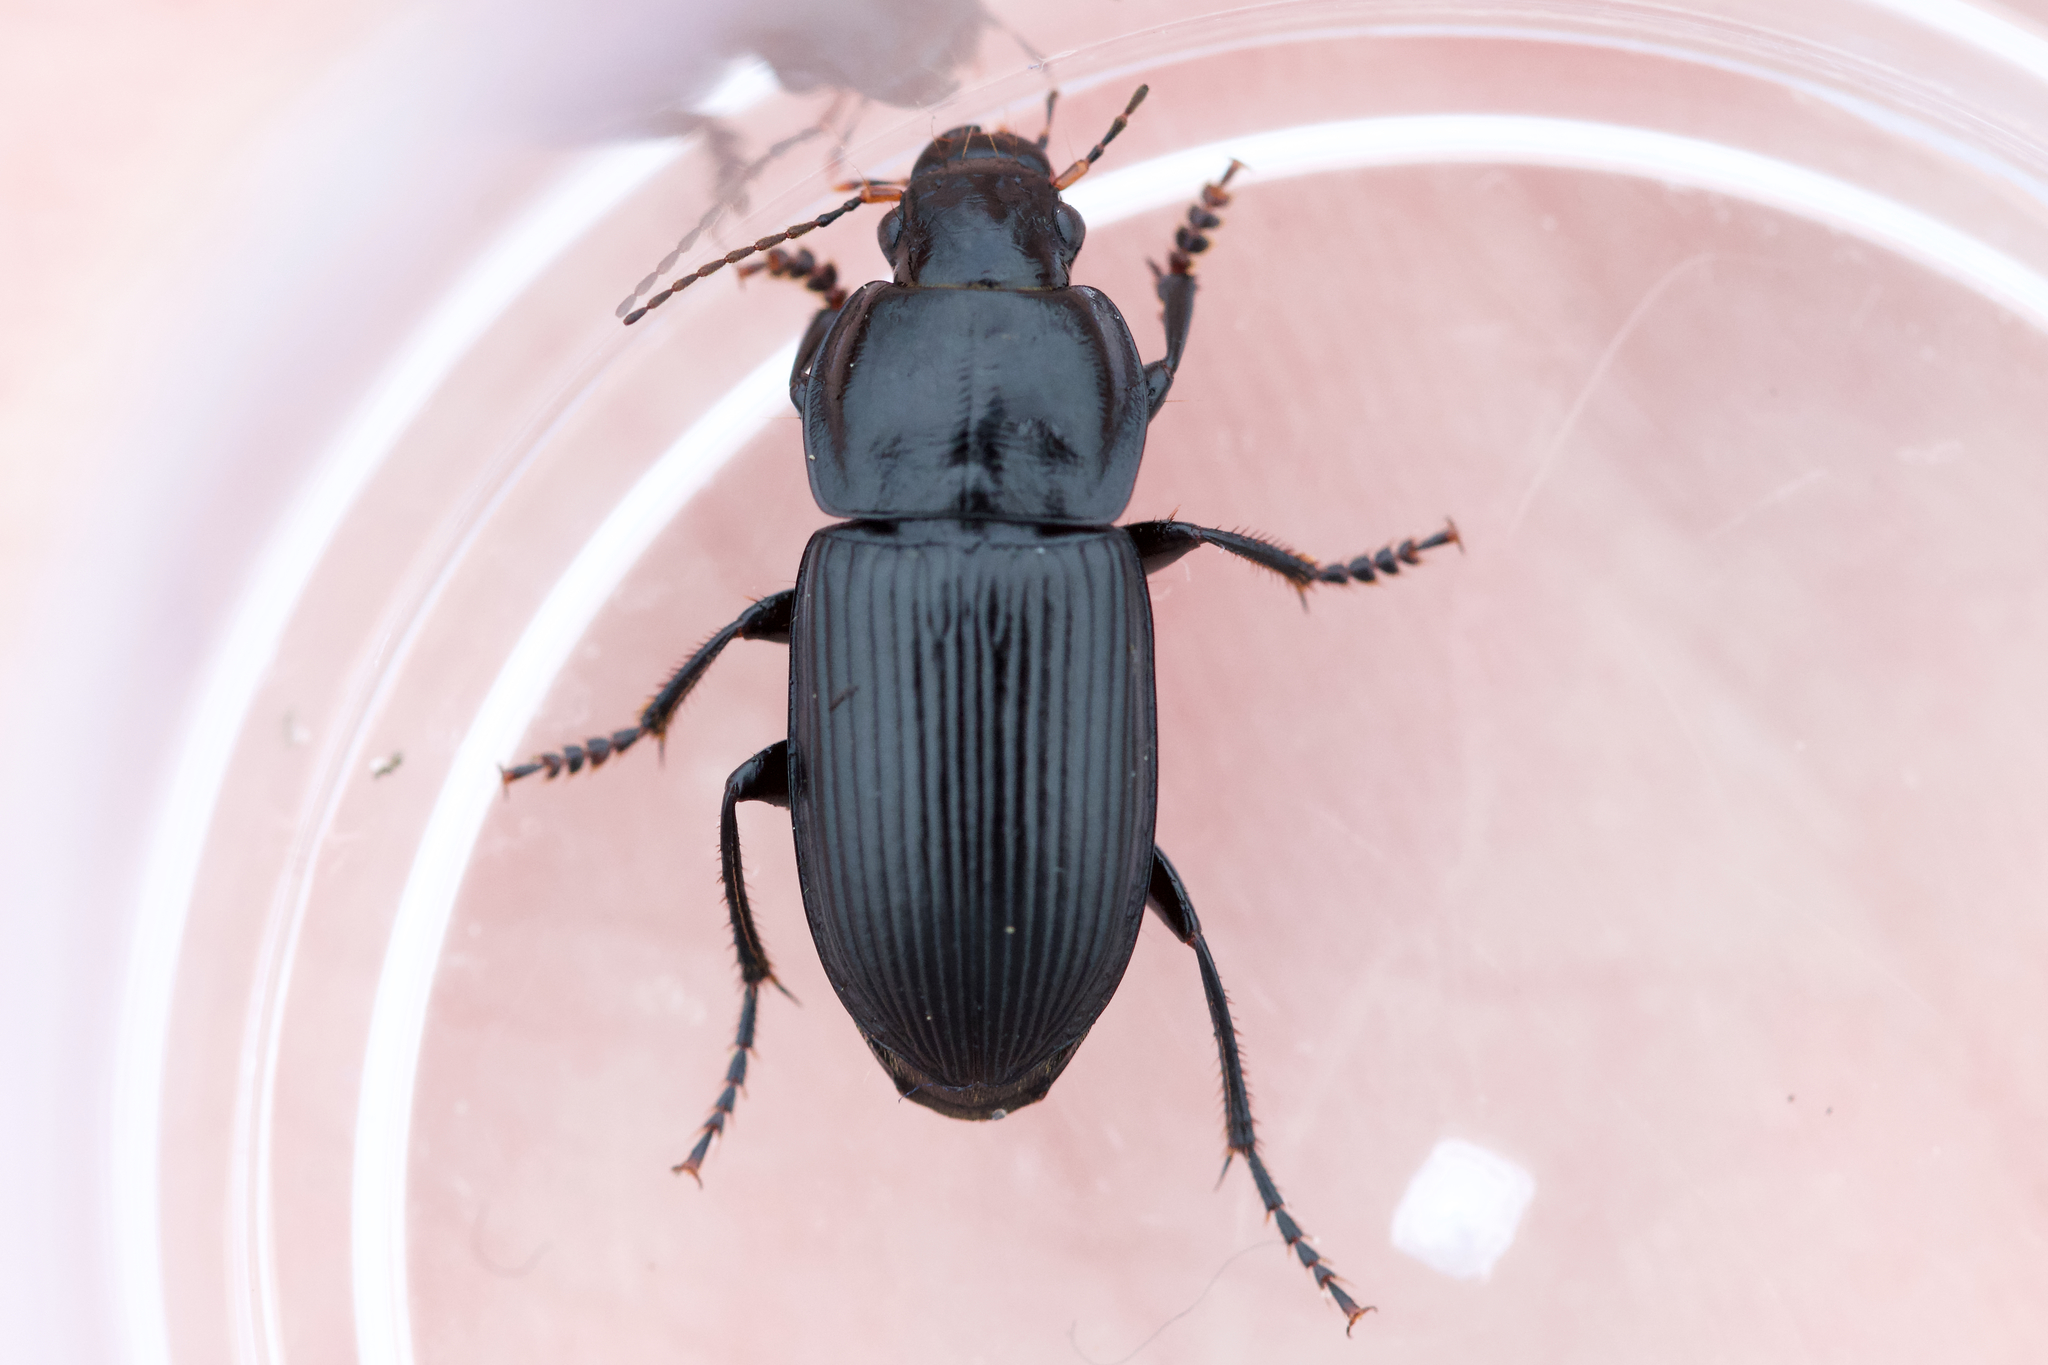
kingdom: Animalia
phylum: Arthropoda
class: Insecta
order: Coleoptera
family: Carabidae
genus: Anisodactylus
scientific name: Anisodactylus harrisii
